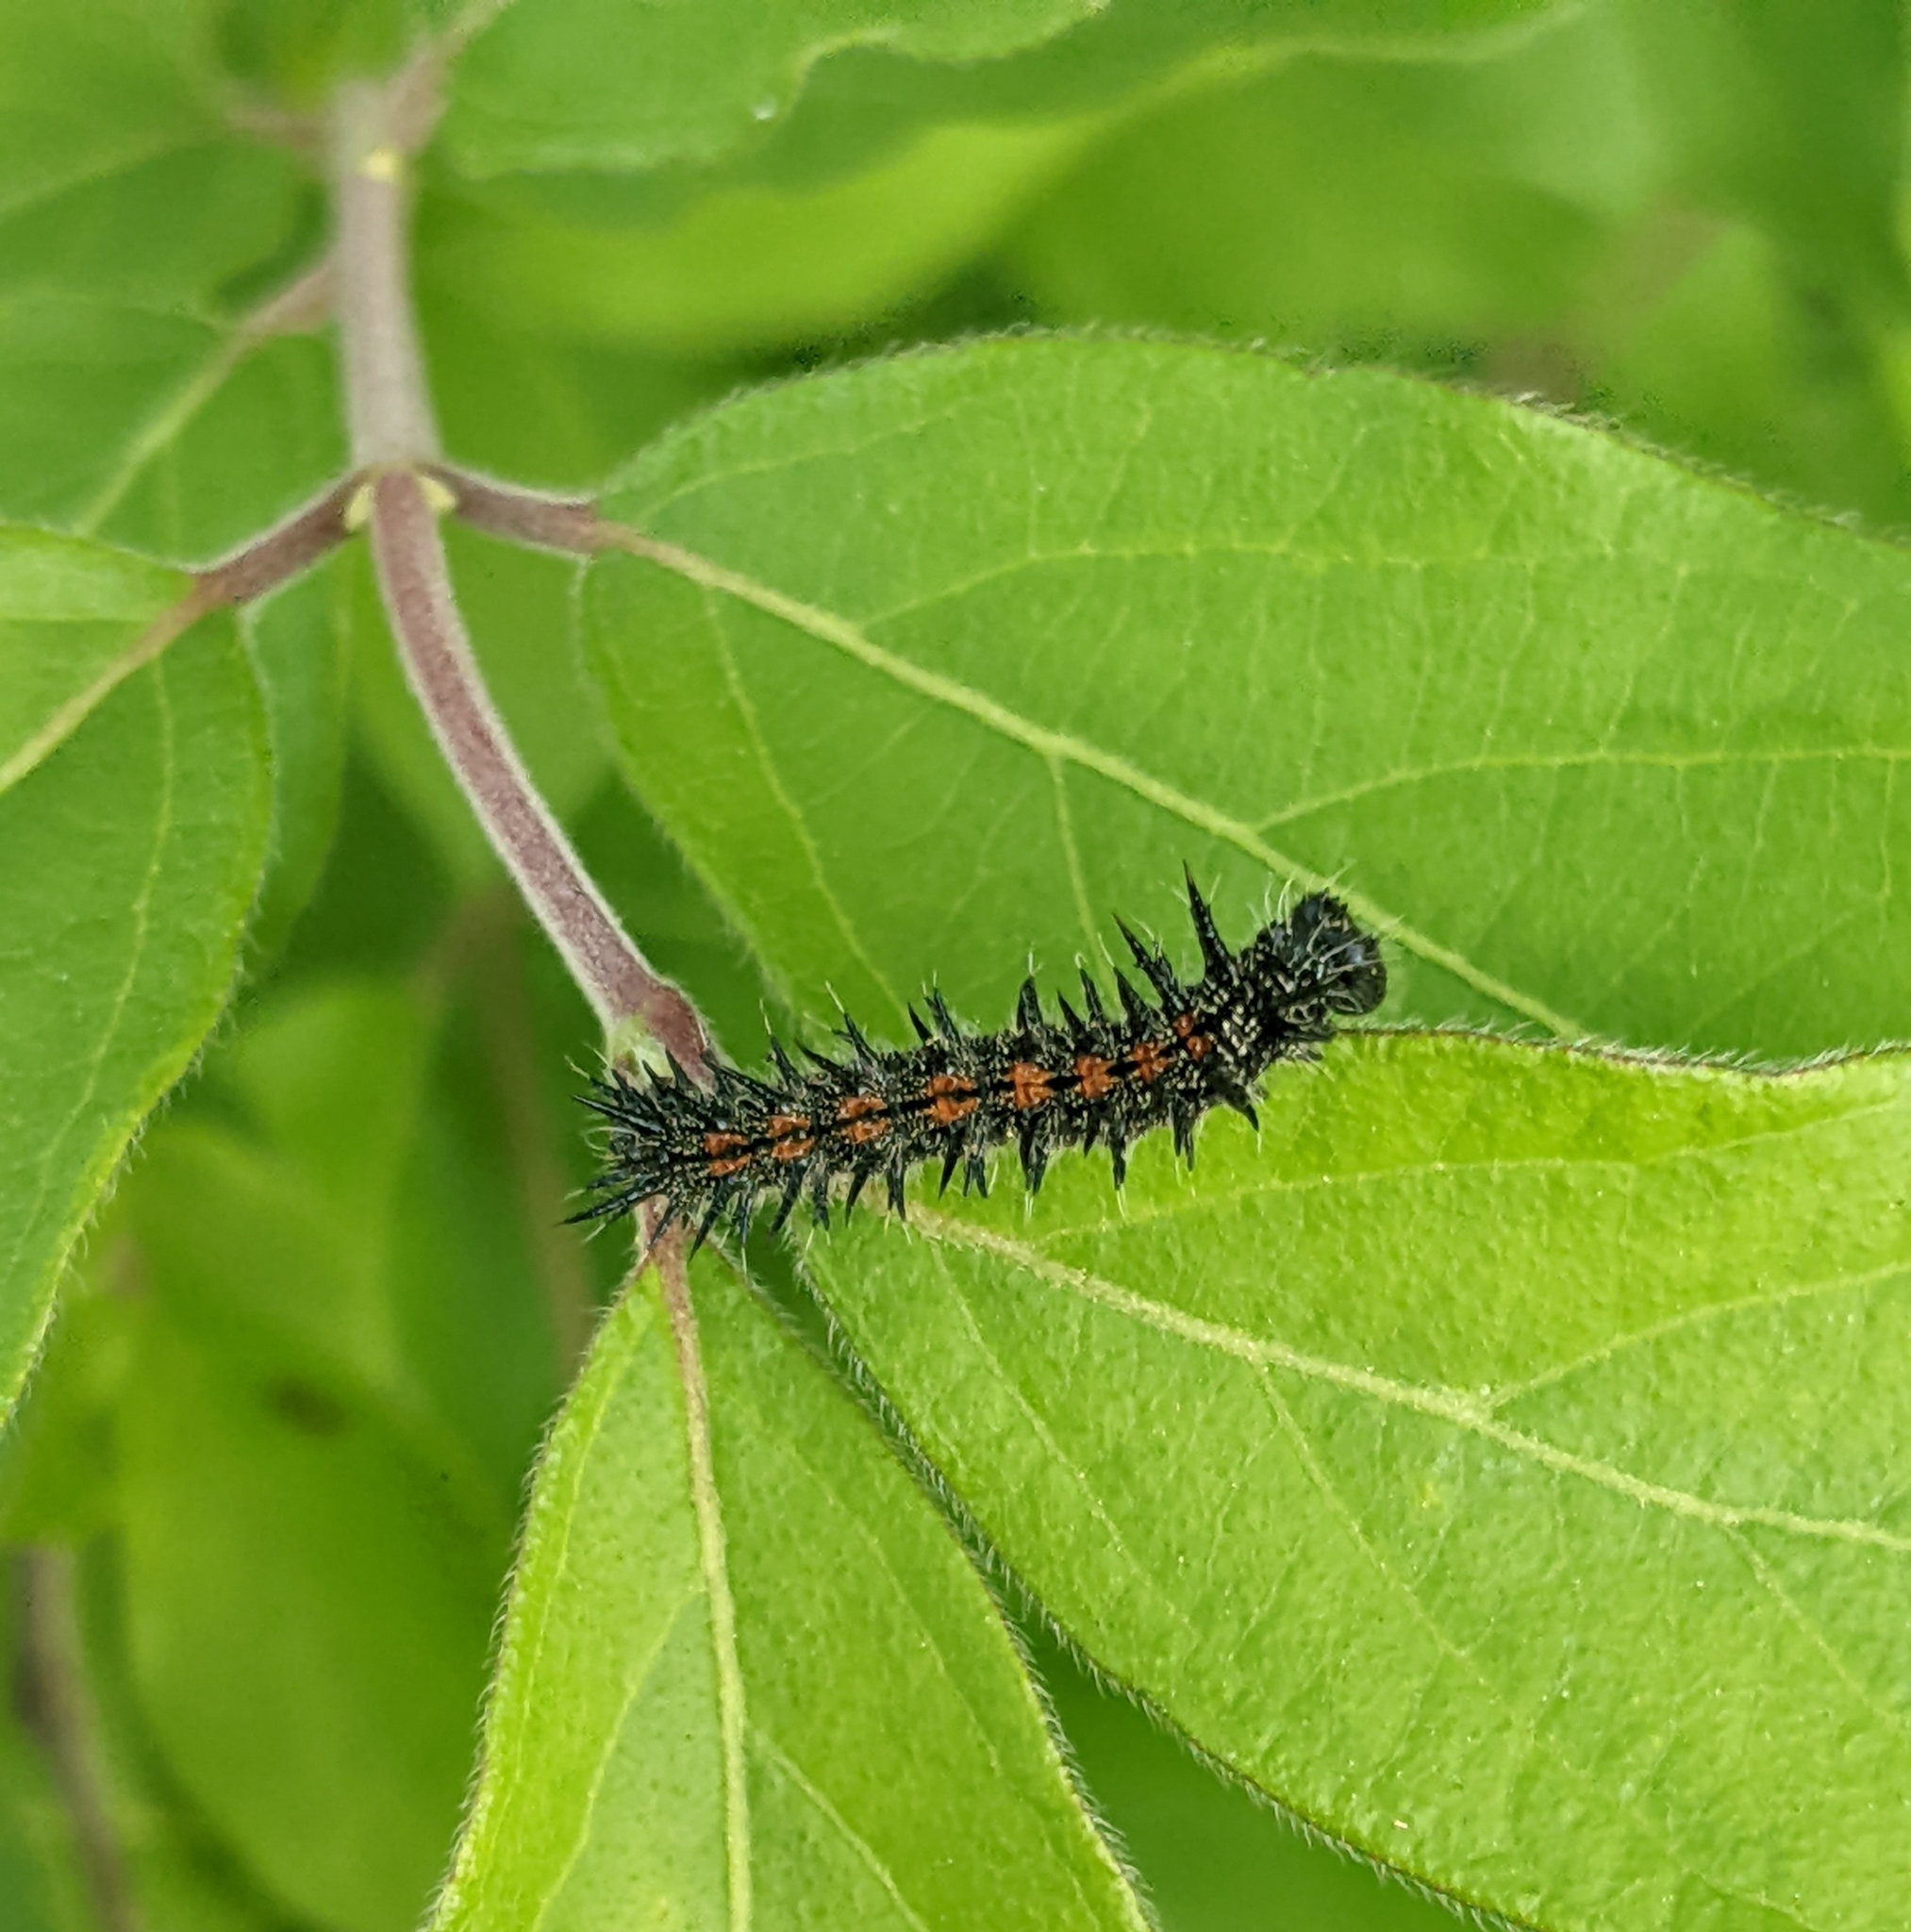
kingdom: Animalia
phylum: Arthropoda
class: Insecta
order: Lepidoptera
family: Nymphalidae
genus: Nymphalis
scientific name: Nymphalis antiopa
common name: Camberwell beauty
